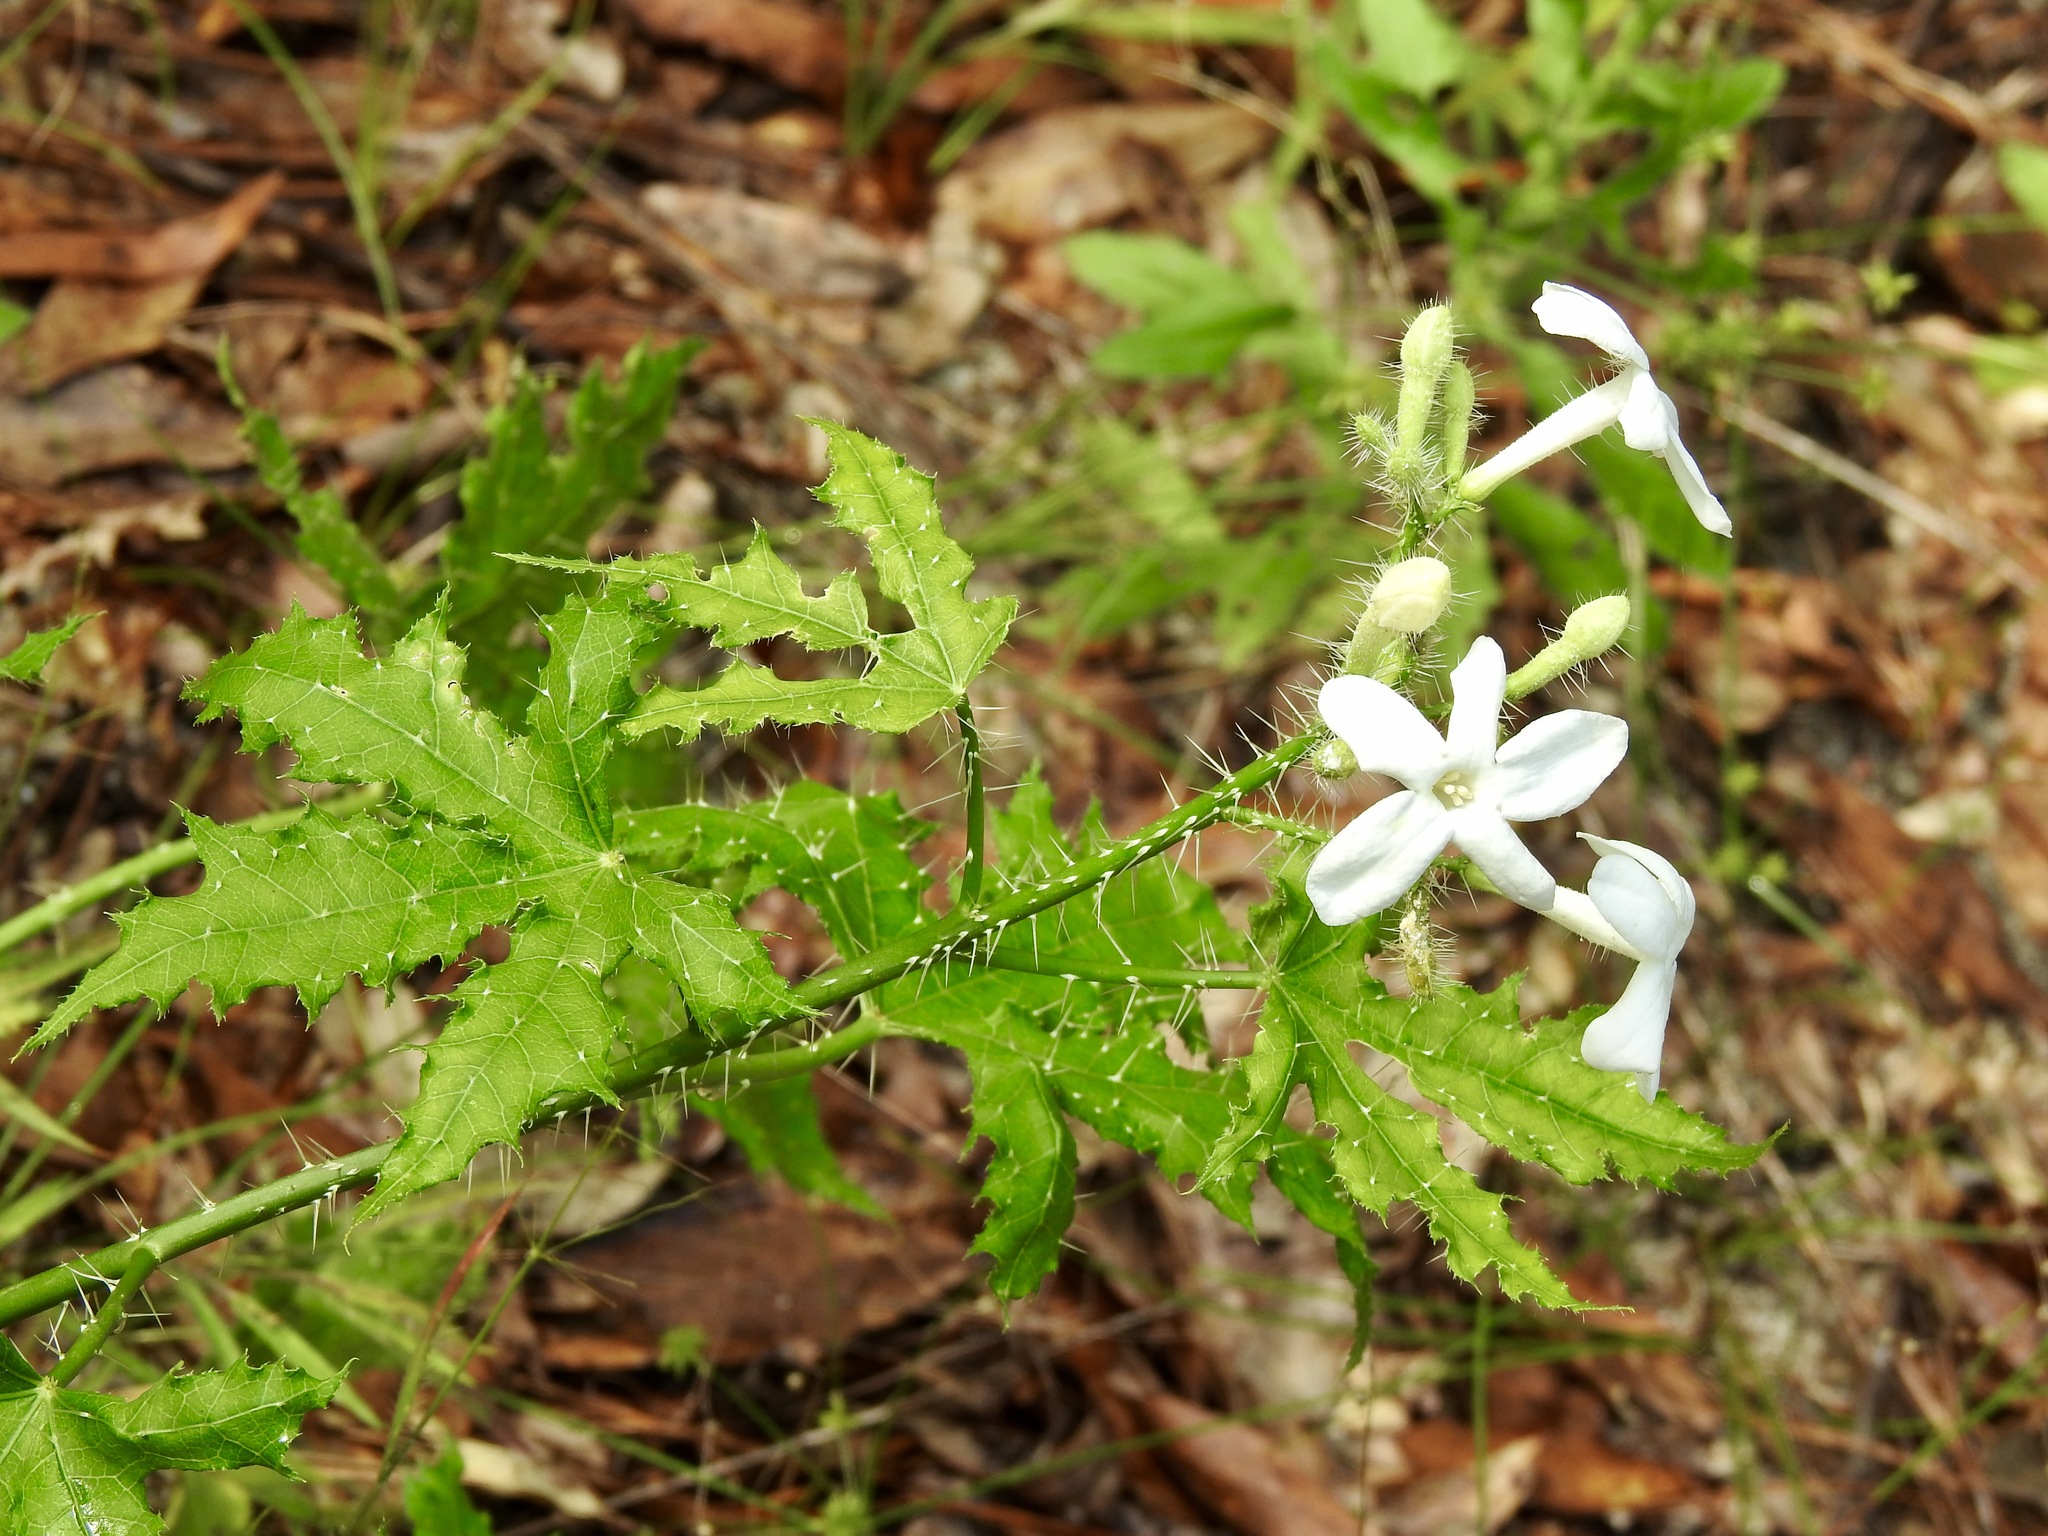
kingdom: Plantae
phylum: Tracheophyta
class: Magnoliopsida
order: Malpighiales
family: Euphorbiaceae
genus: Cnidoscolus
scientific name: Cnidoscolus texanus
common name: Texas bull-nettle
